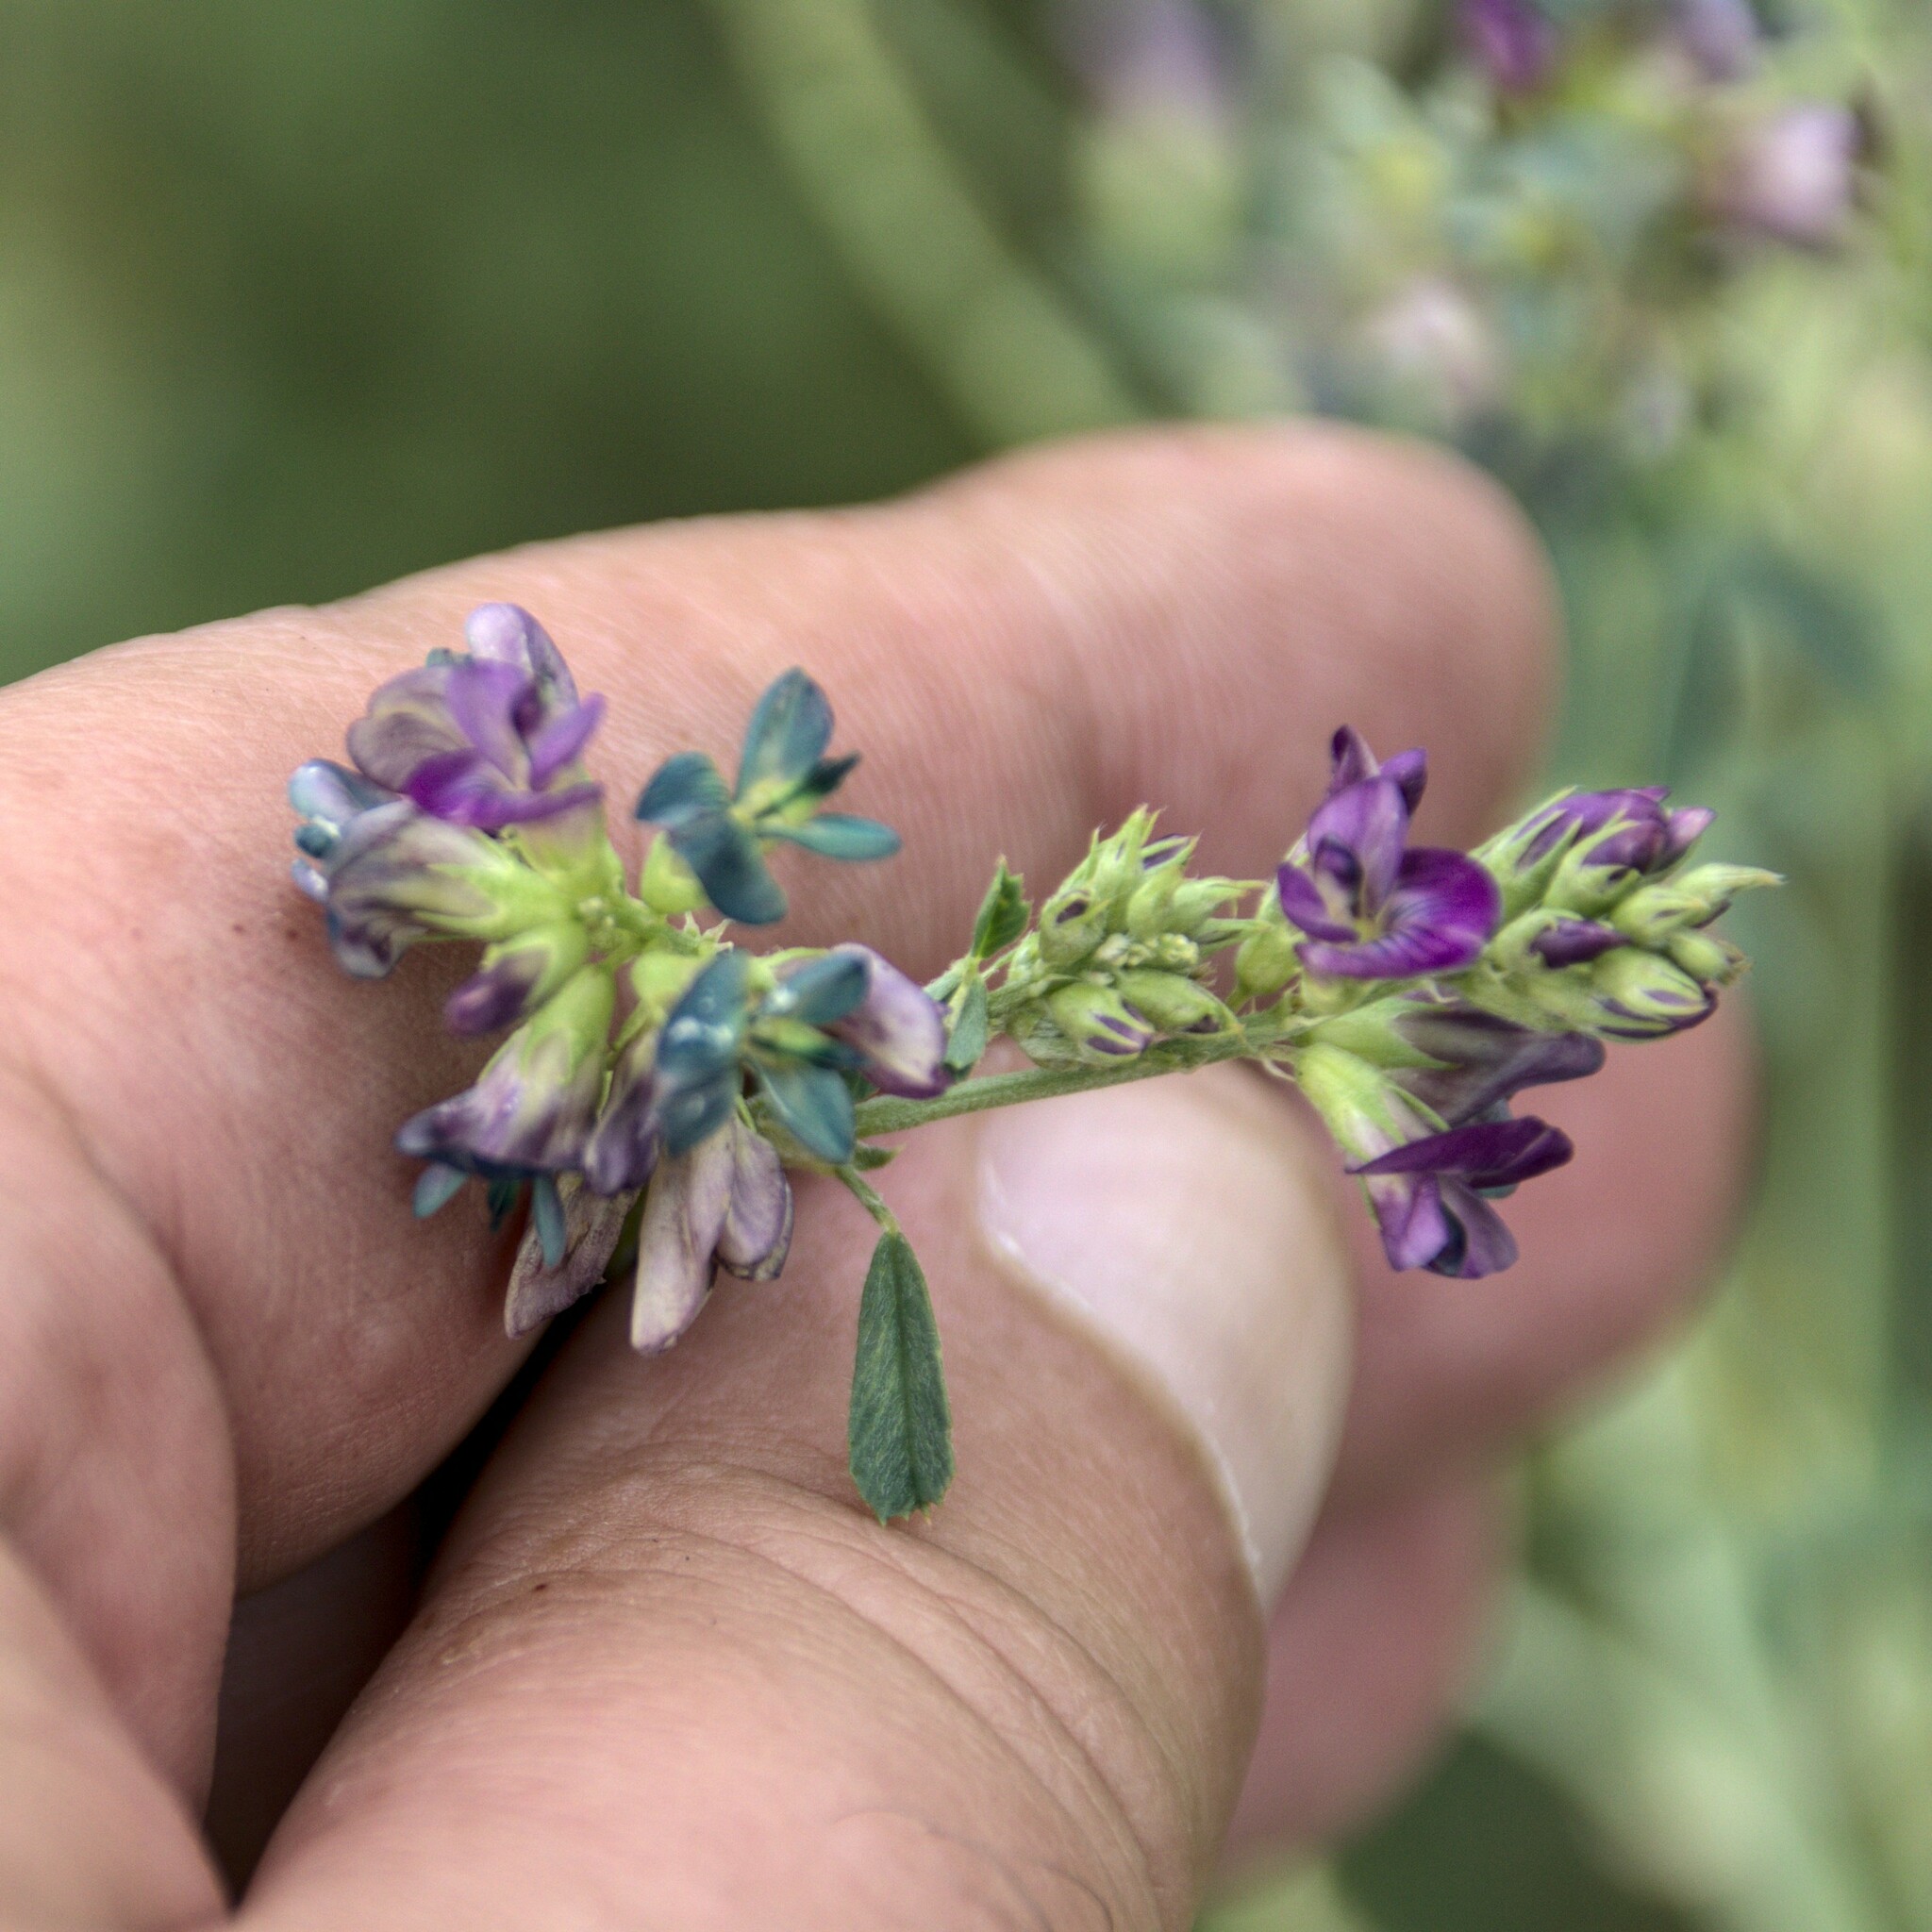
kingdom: Plantae
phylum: Tracheophyta
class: Magnoliopsida
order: Fabales
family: Fabaceae
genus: Medicago
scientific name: Medicago varia
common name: Sand lucerne
